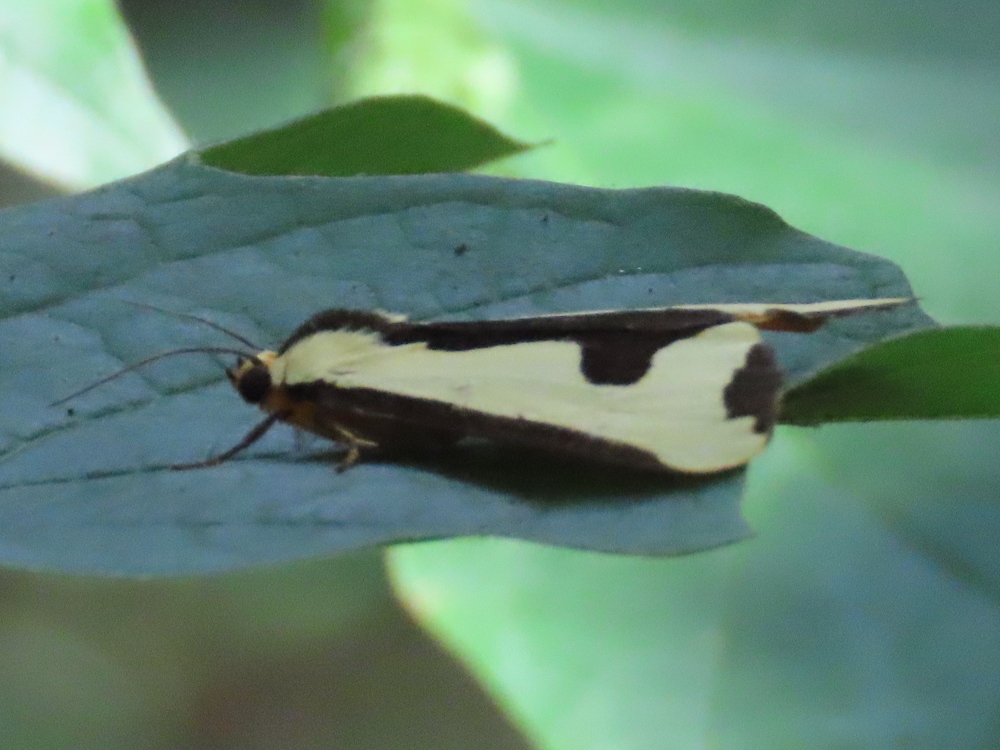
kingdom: Animalia
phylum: Arthropoda
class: Insecta
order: Lepidoptera
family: Erebidae
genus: Haploa
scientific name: Haploa clymene
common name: Clymene moth
